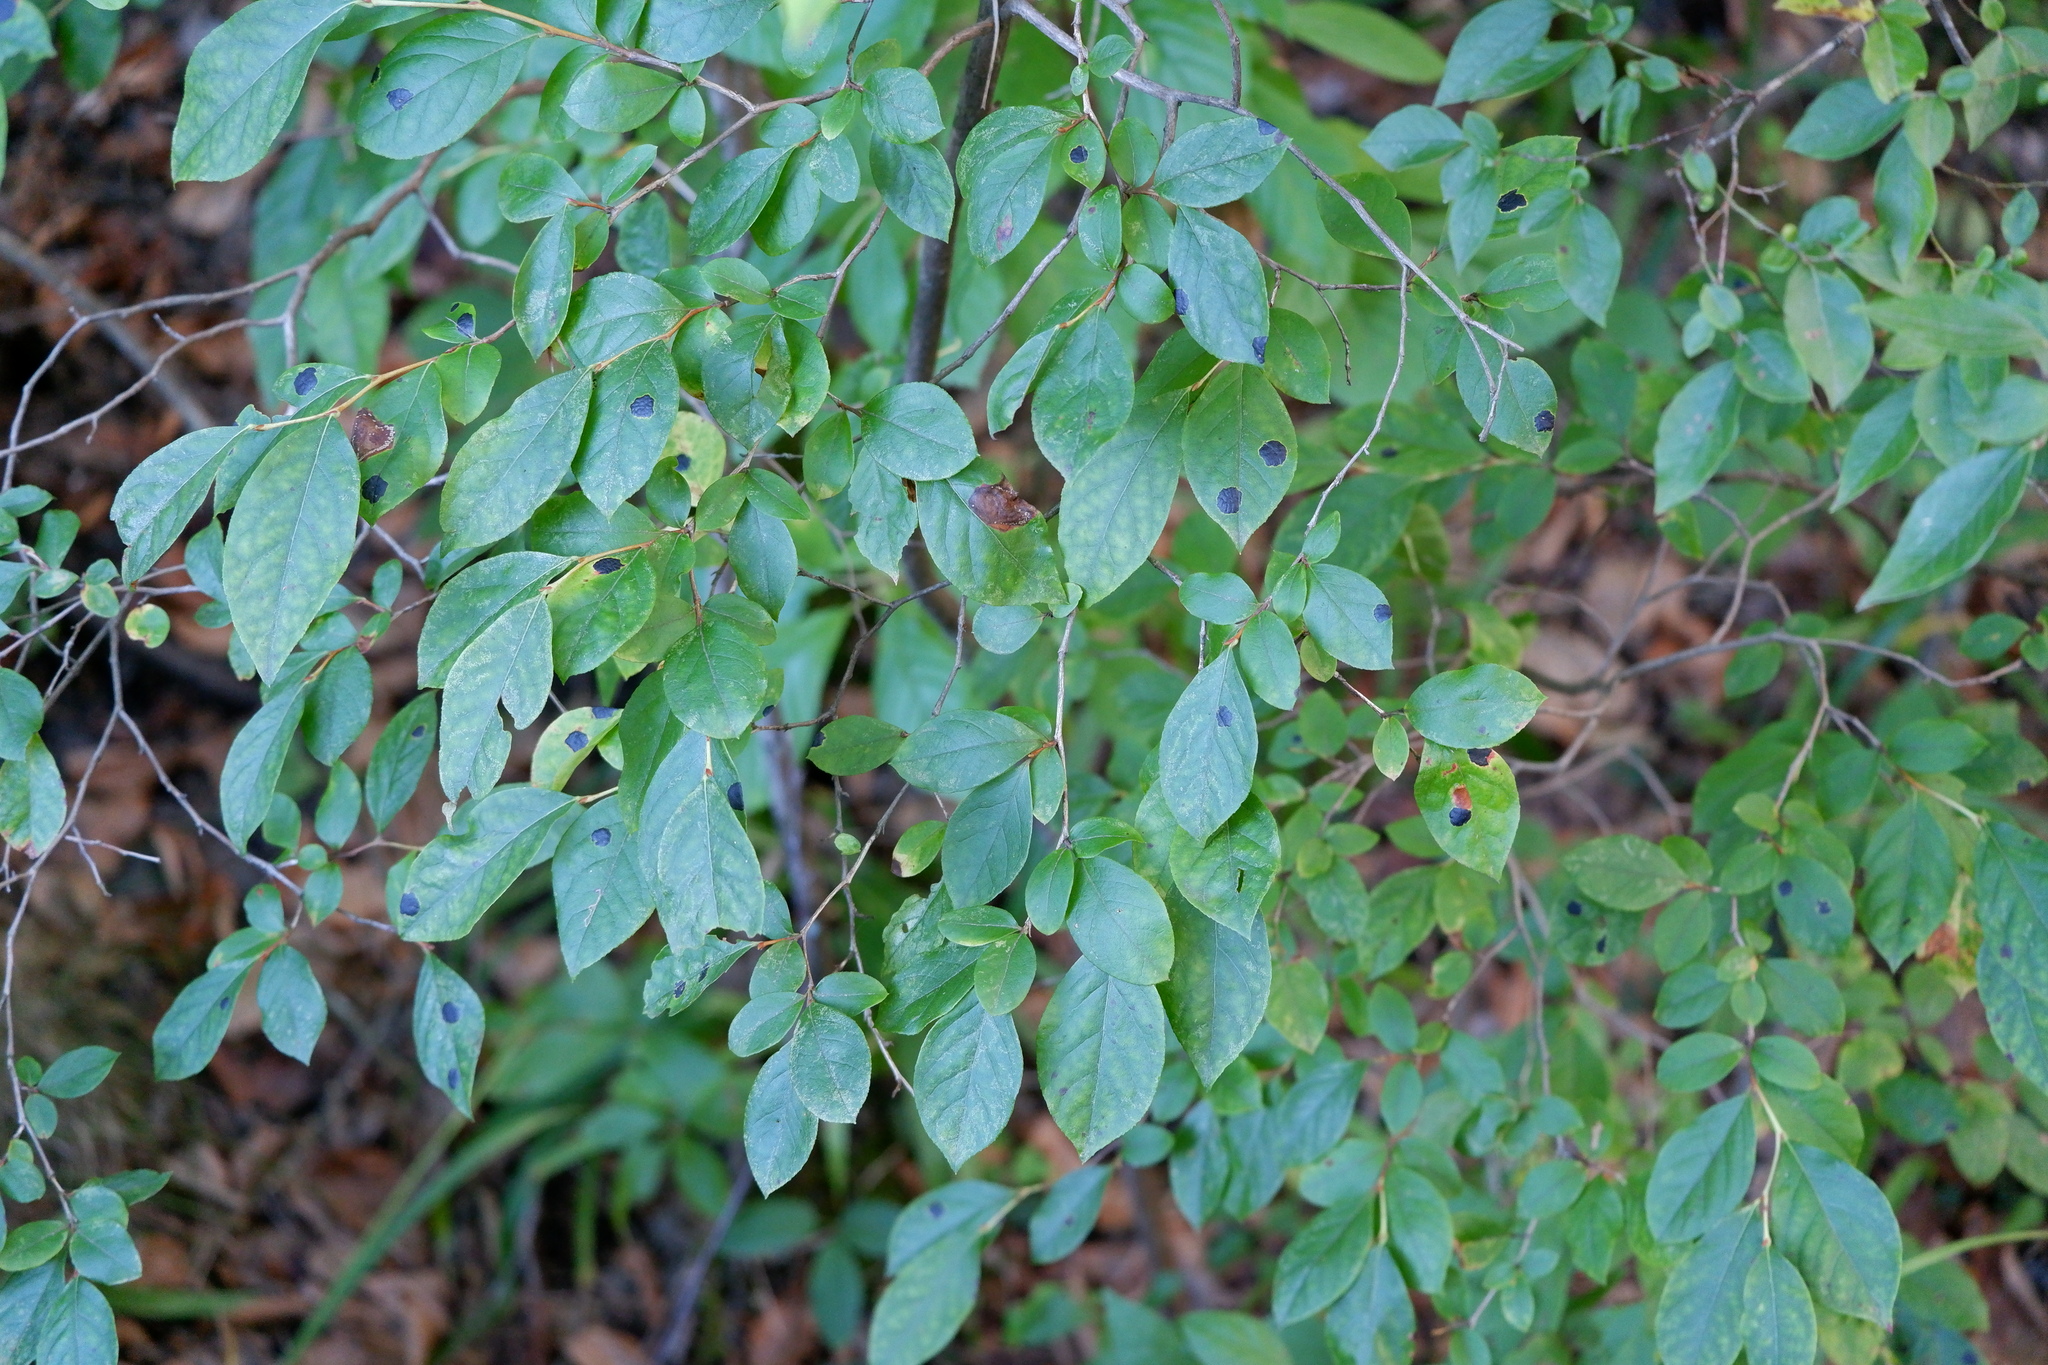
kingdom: Fungi
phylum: Ascomycota
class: Leotiomycetes
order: Rhytismatales
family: Rhytismataceae
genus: Rhytisma
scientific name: Rhytisma
